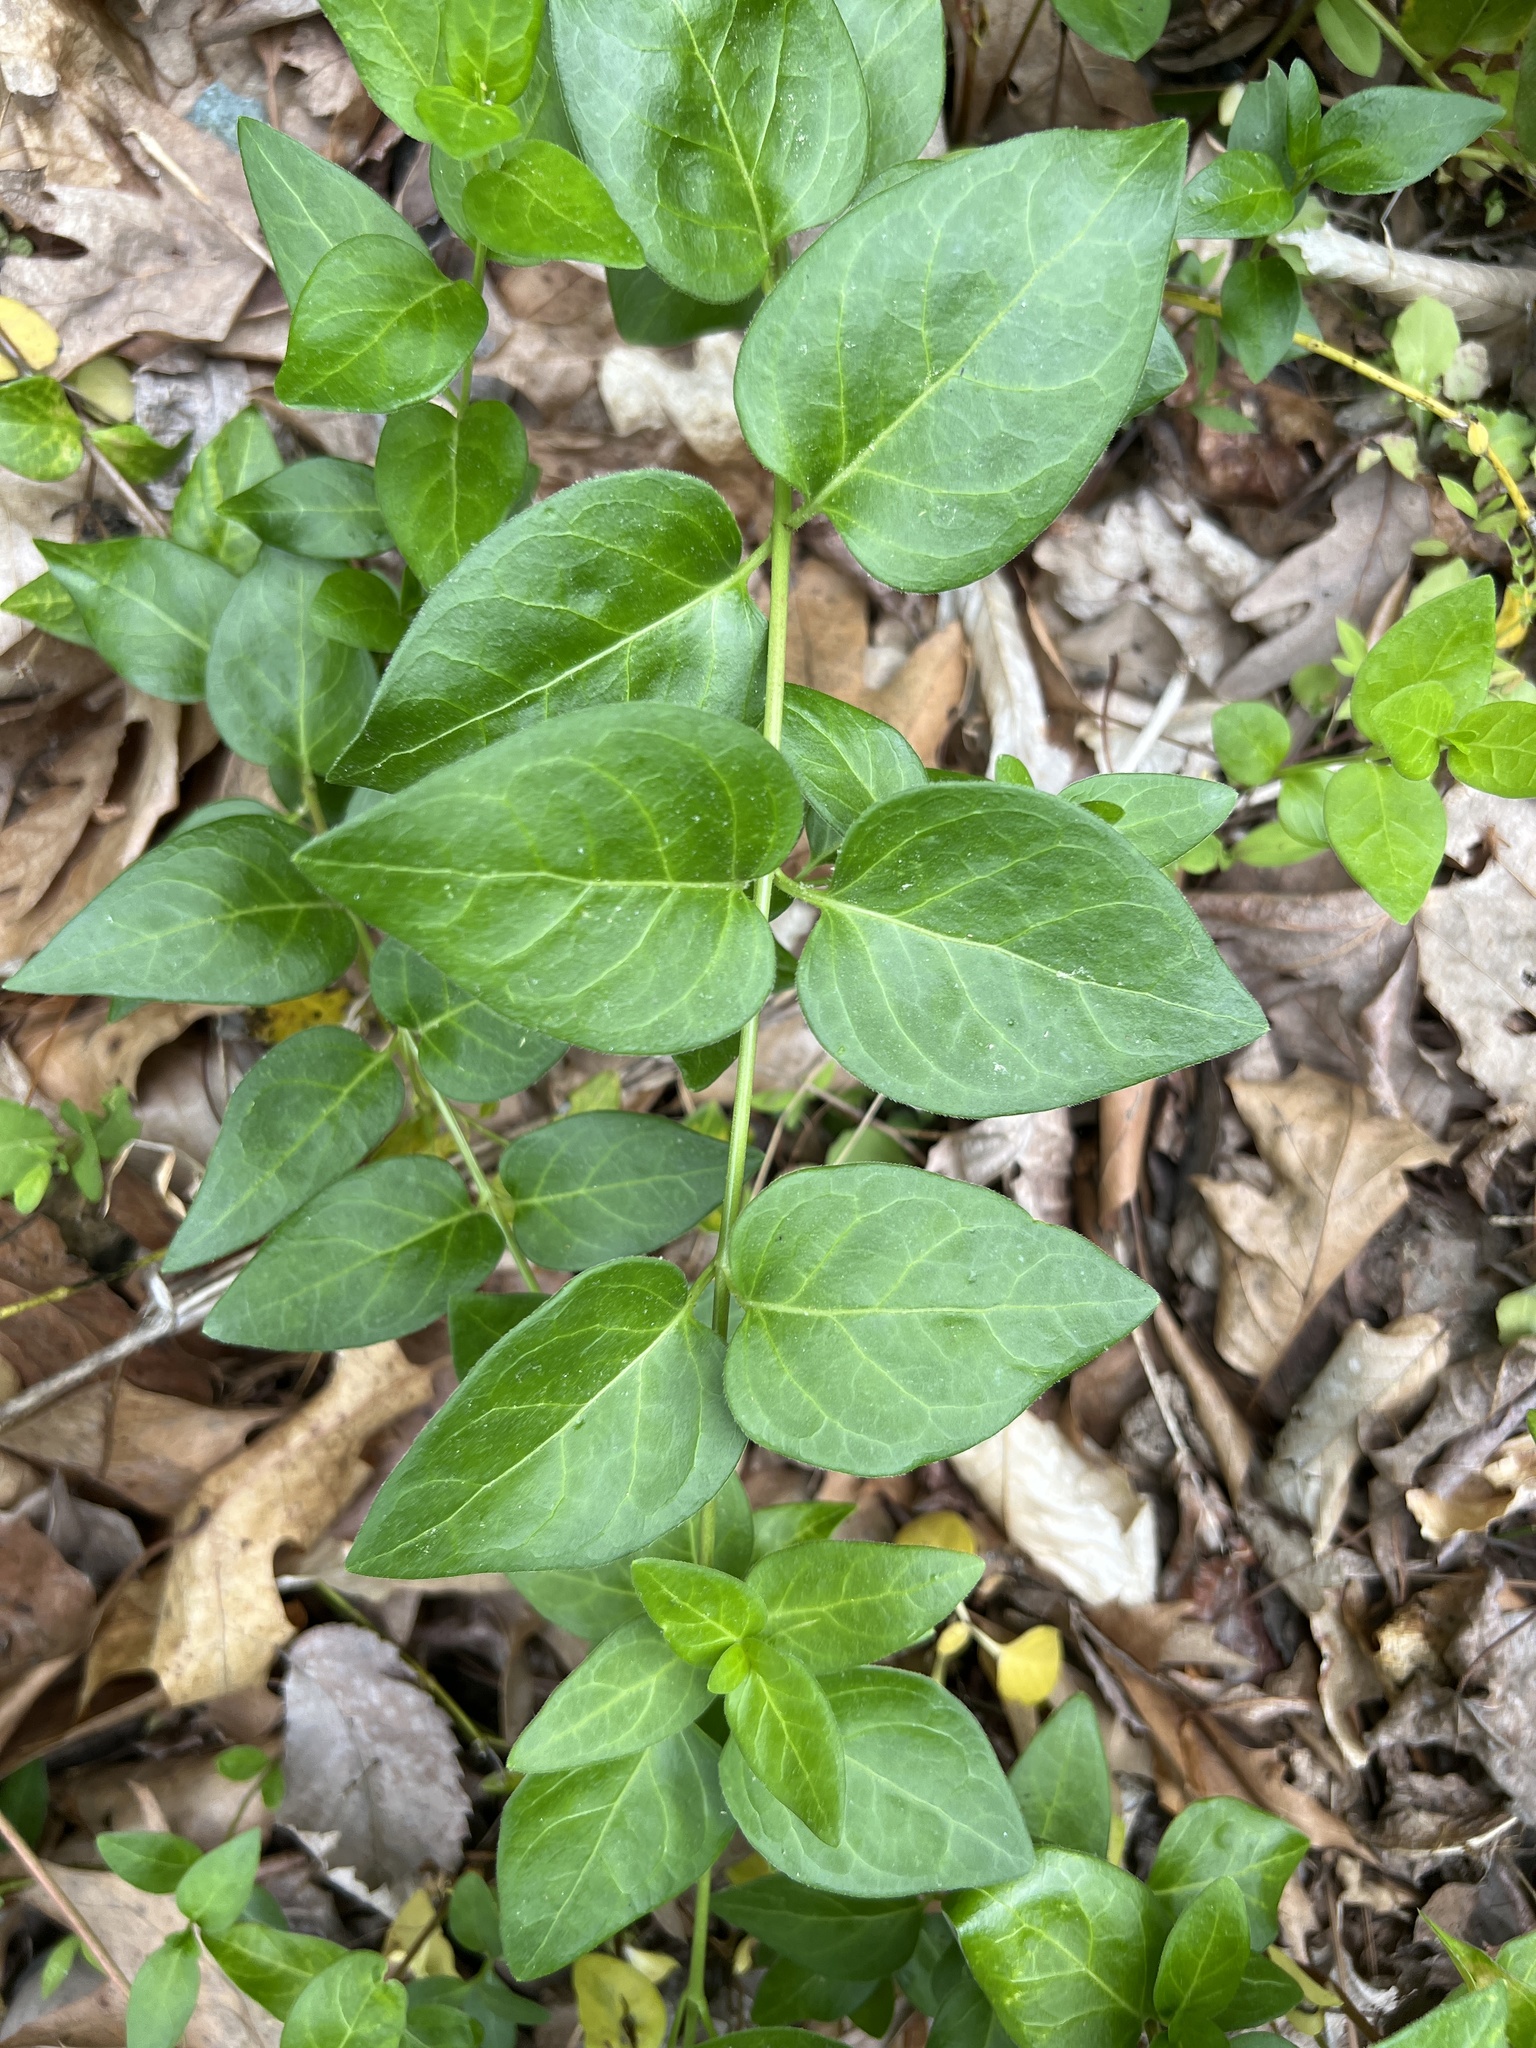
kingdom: Plantae
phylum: Tracheophyta
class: Magnoliopsida
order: Gentianales
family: Apocynaceae
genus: Vinca
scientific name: Vinca major
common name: Greater periwinkle
